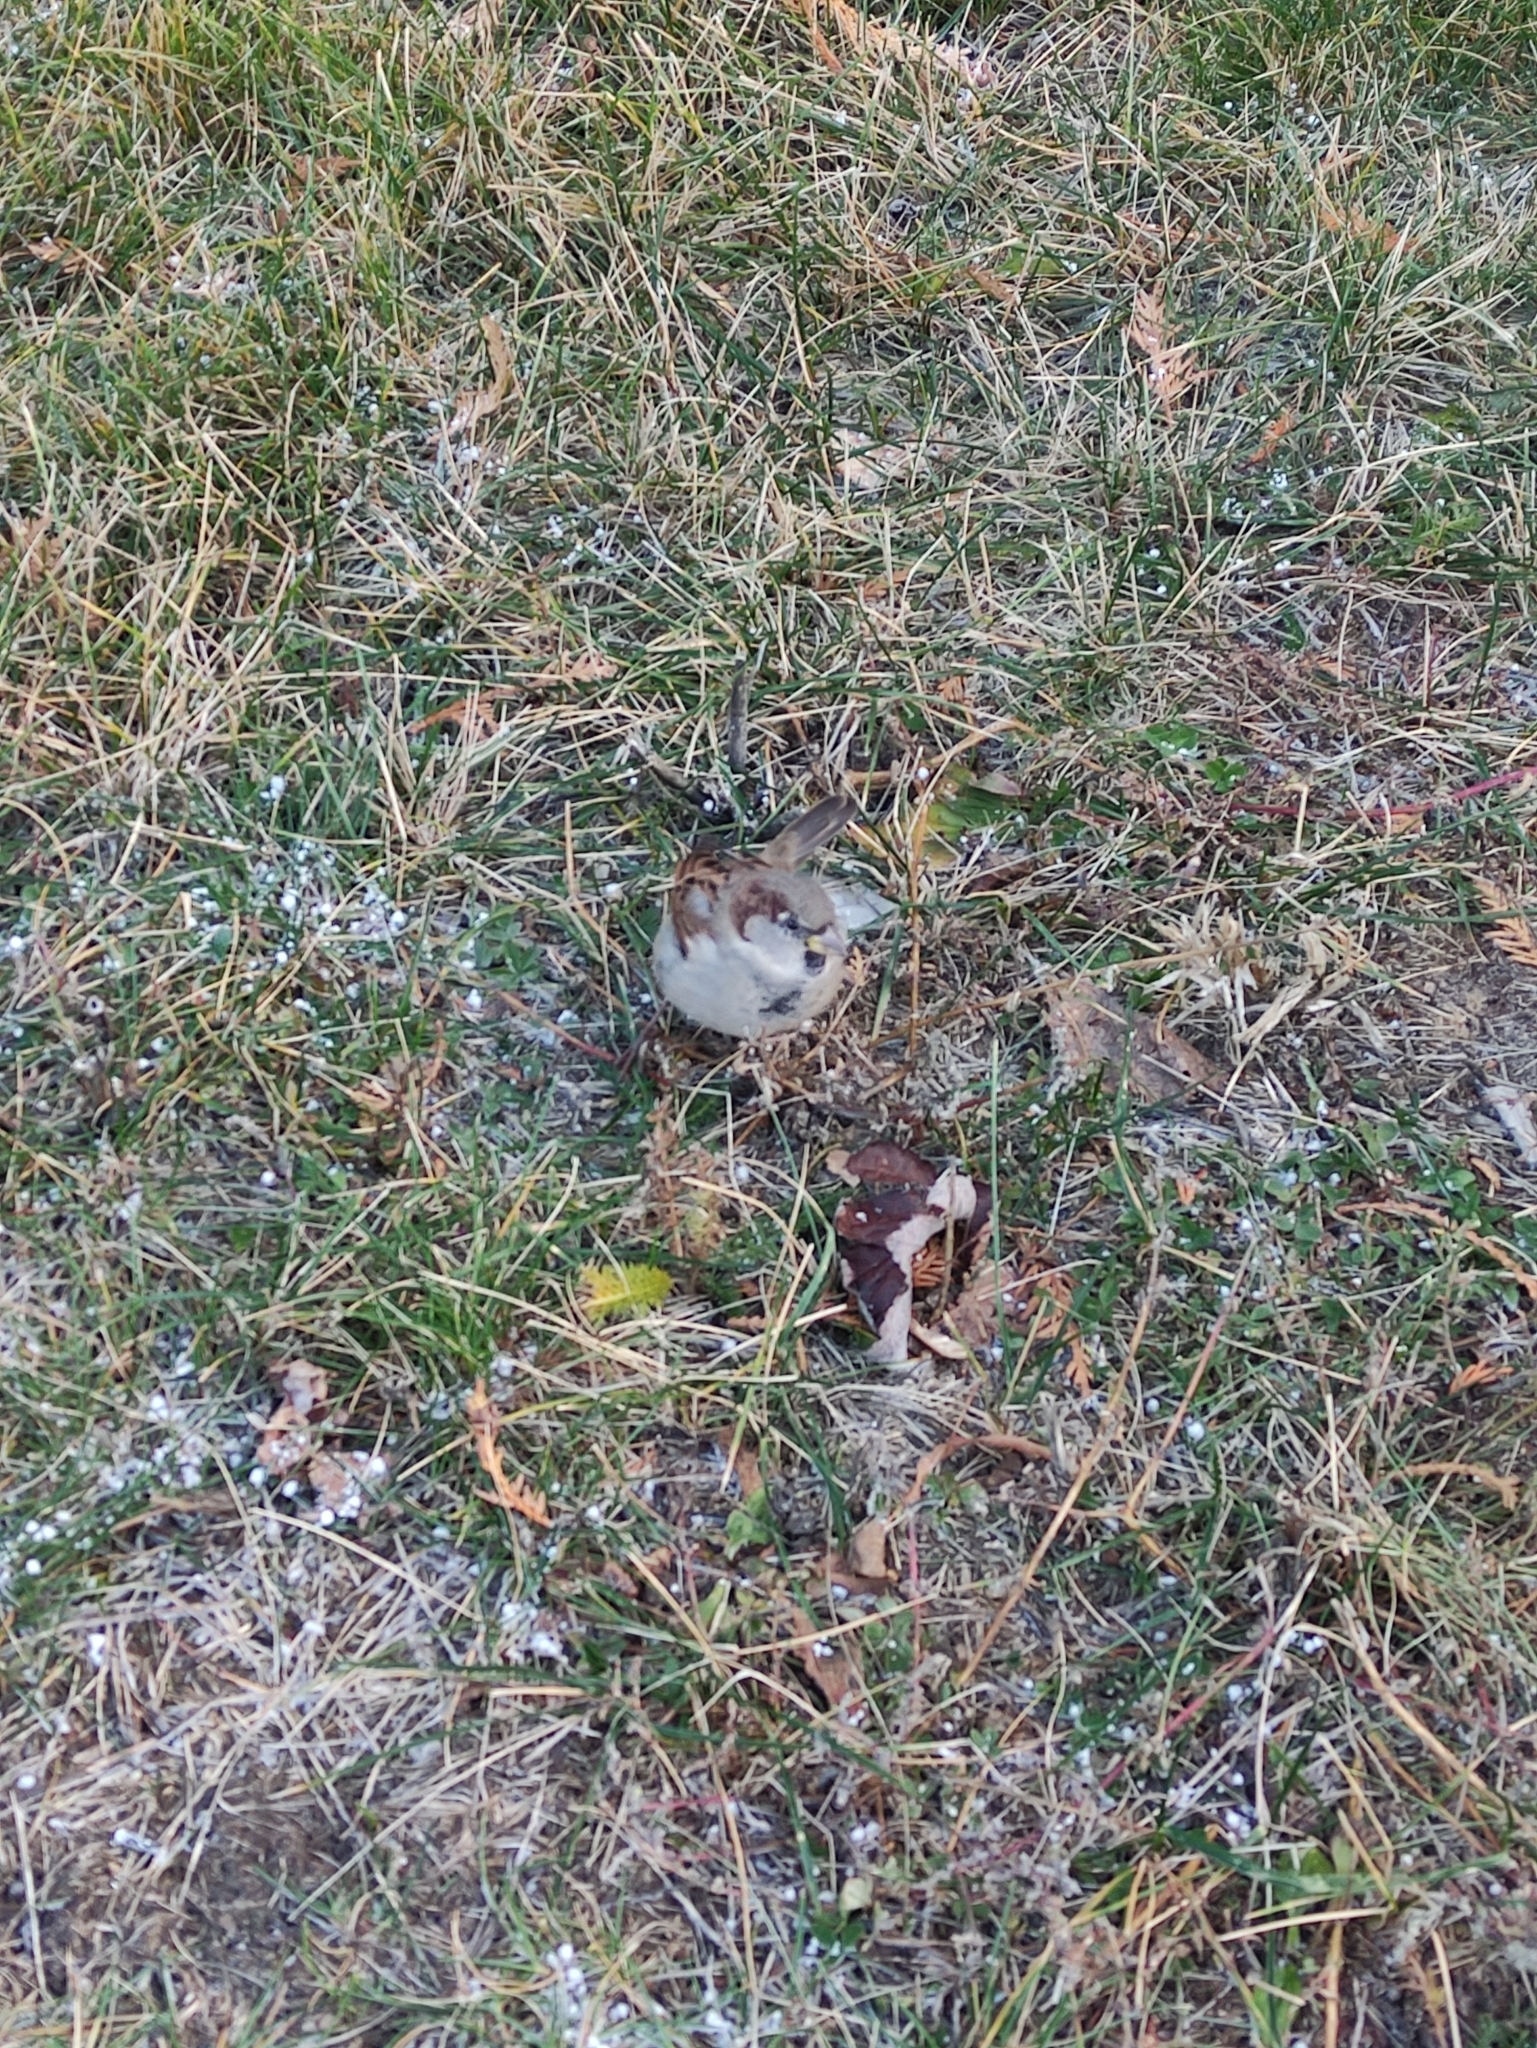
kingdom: Animalia
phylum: Chordata
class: Aves
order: Passeriformes
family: Passeridae
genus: Passer
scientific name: Passer domesticus
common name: House sparrow
